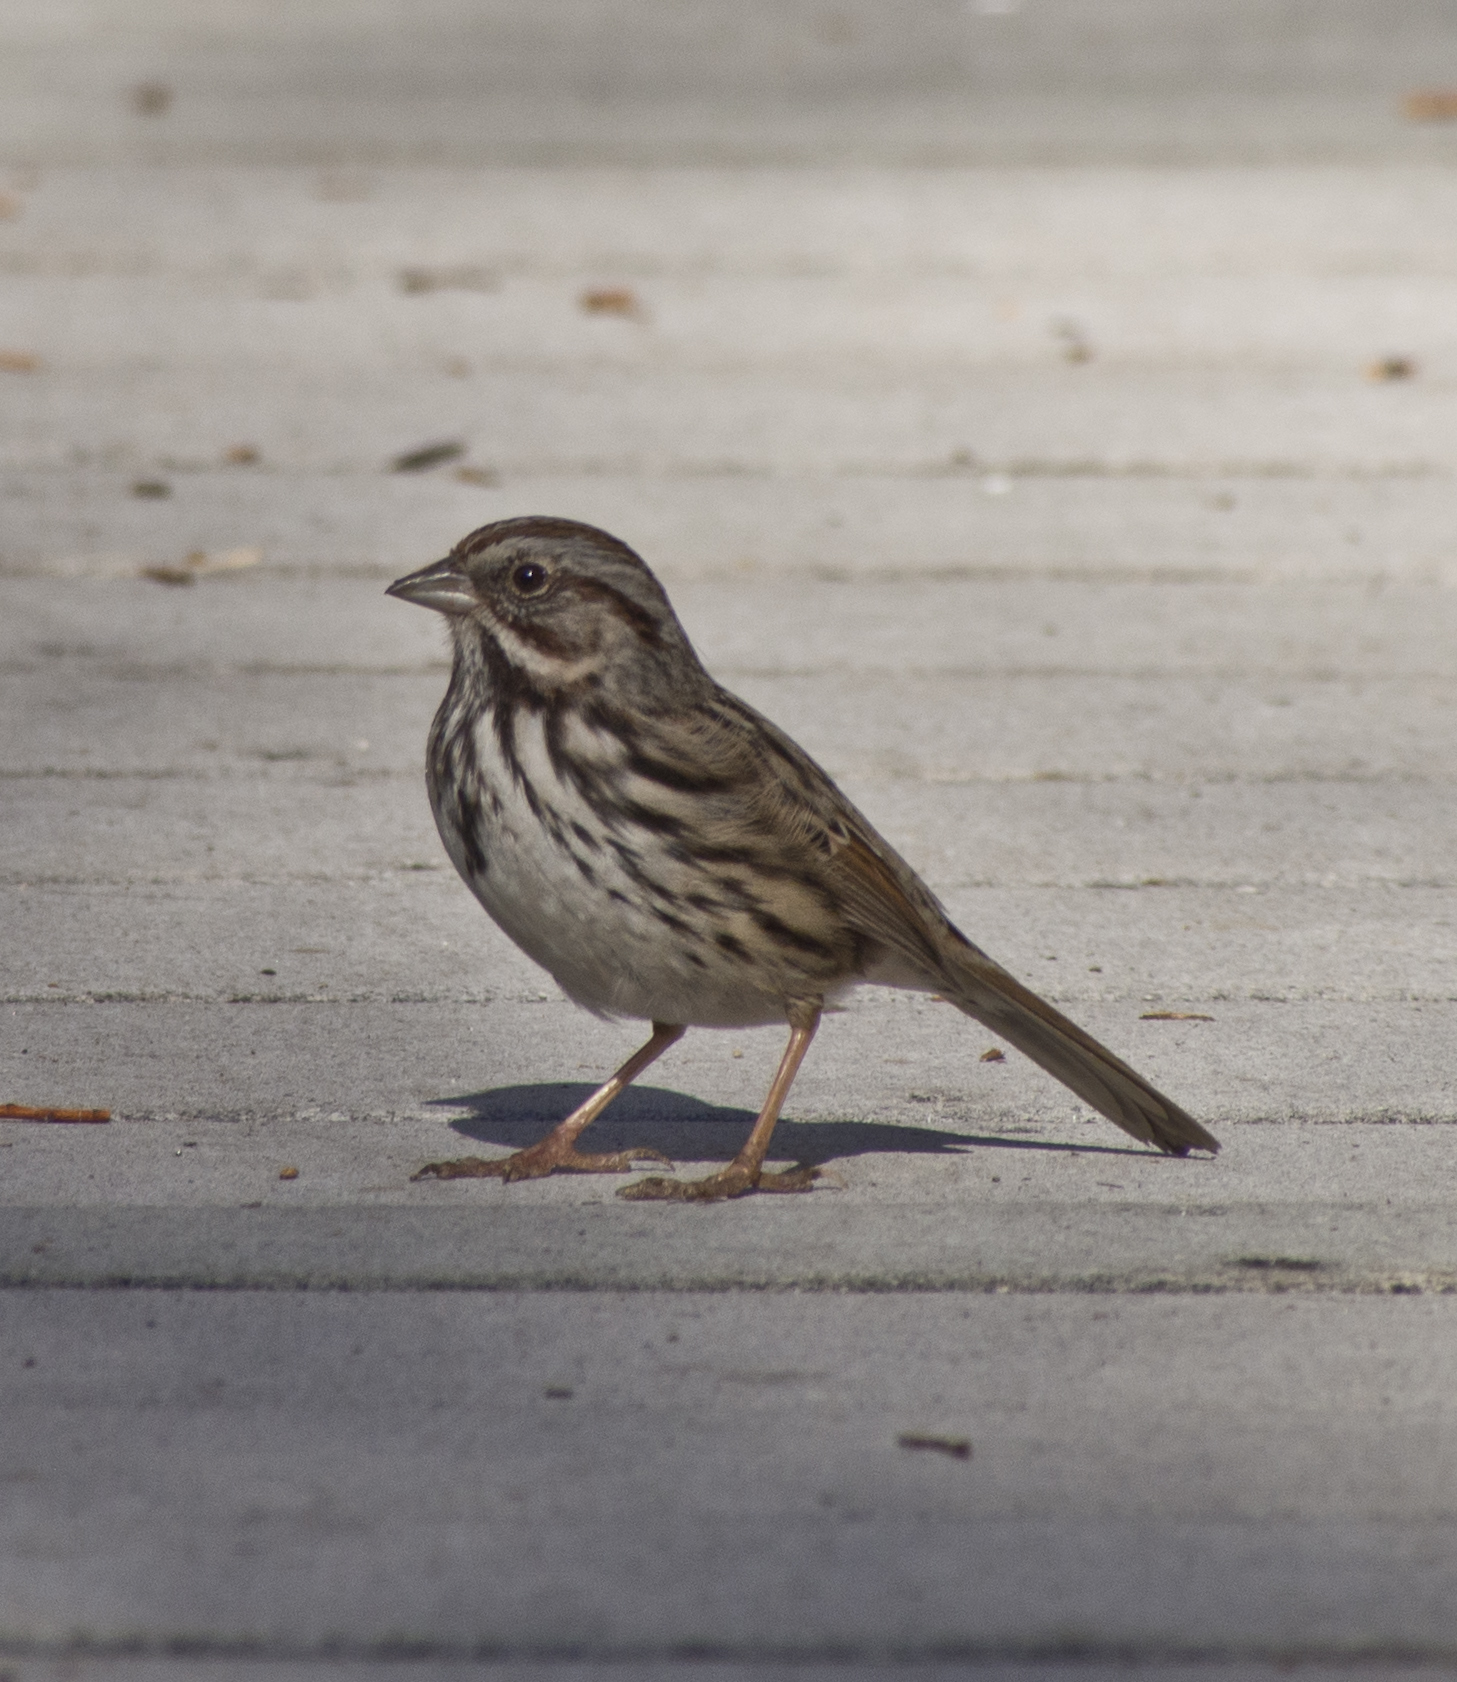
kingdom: Animalia
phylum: Chordata
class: Aves
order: Passeriformes
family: Passerellidae
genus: Melospiza
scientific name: Melospiza melodia
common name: Song sparrow
